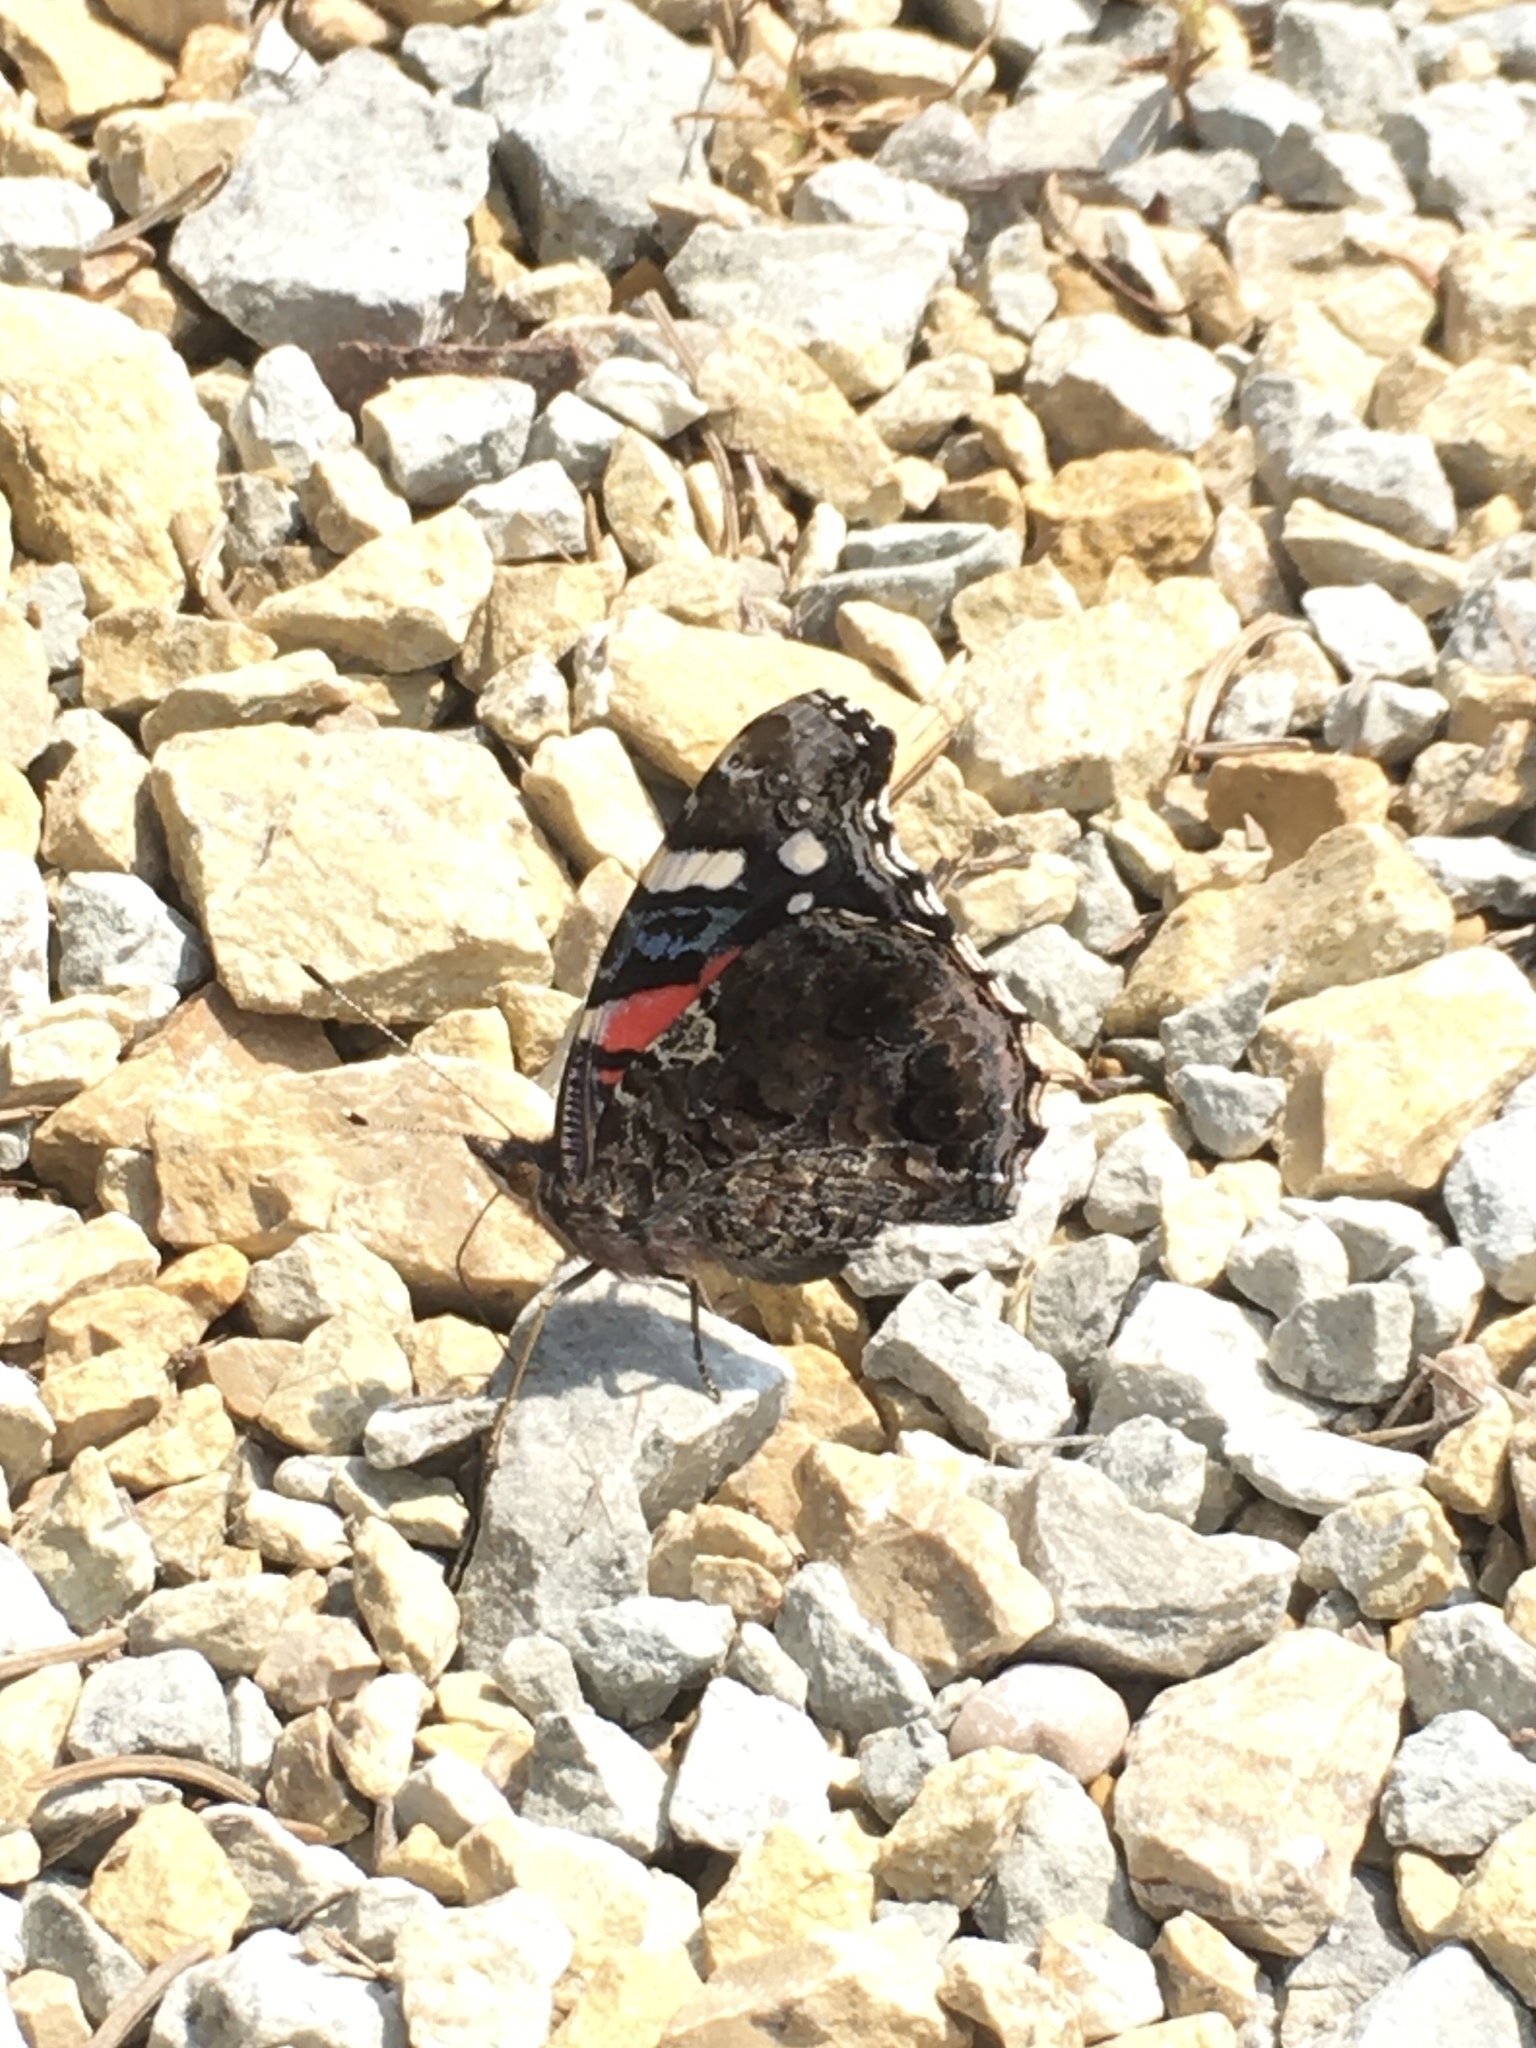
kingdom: Animalia
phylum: Arthropoda
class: Insecta
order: Lepidoptera
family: Nymphalidae
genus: Vanessa
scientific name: Vanessa atalanta
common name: Red admiral
